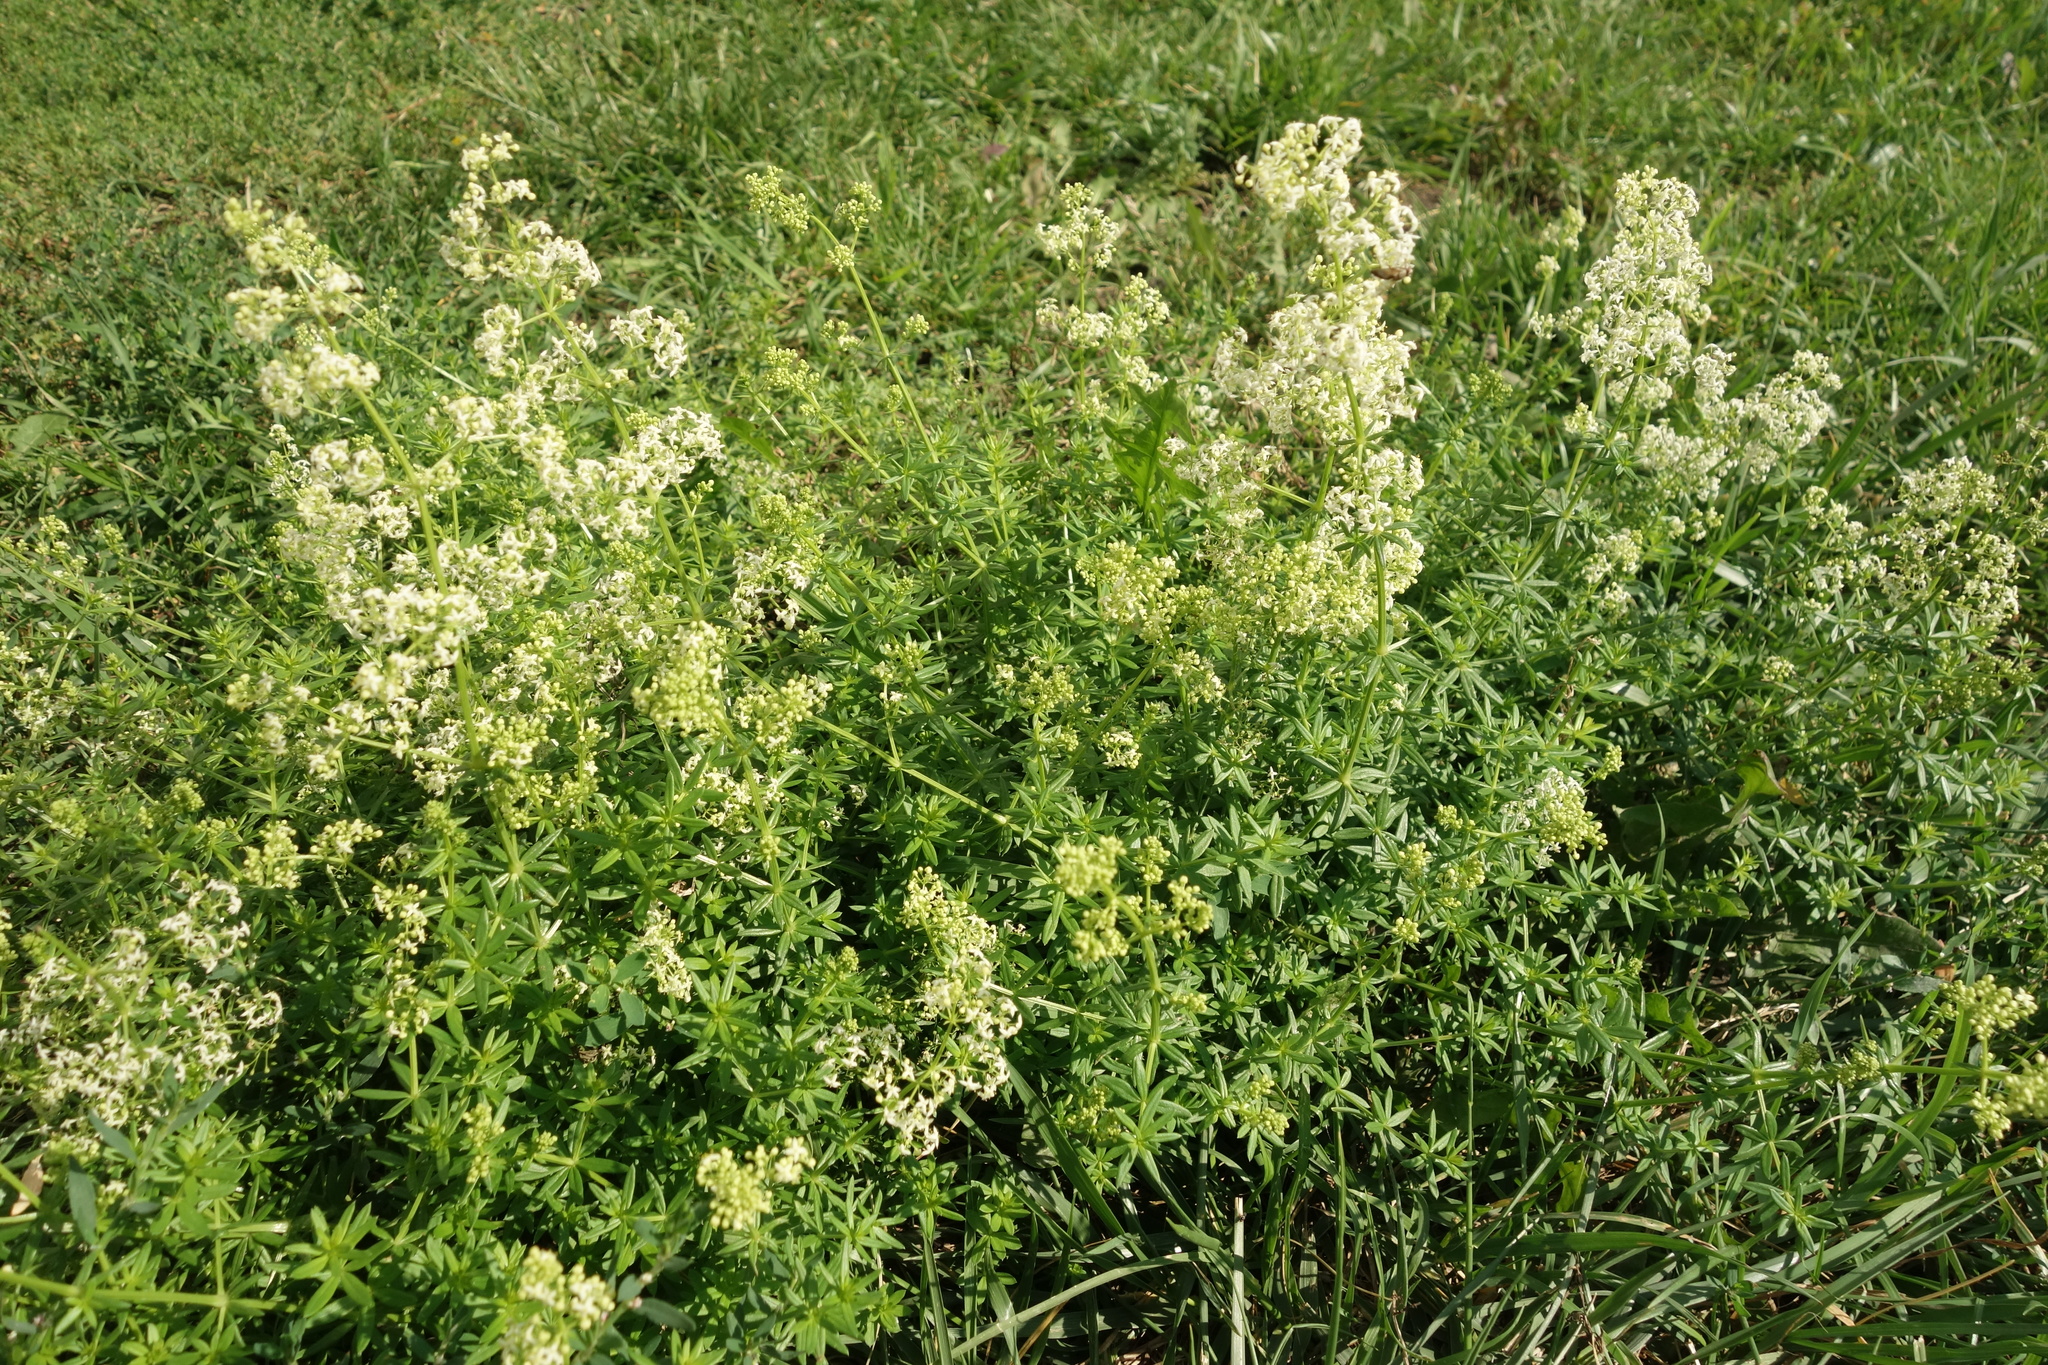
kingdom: Plantae
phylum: Tracheophyta
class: Magnoliopsida
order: Gentianales
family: Rubiaceae
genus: Galium
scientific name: Galium mollugo
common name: Hedge bedstraw
